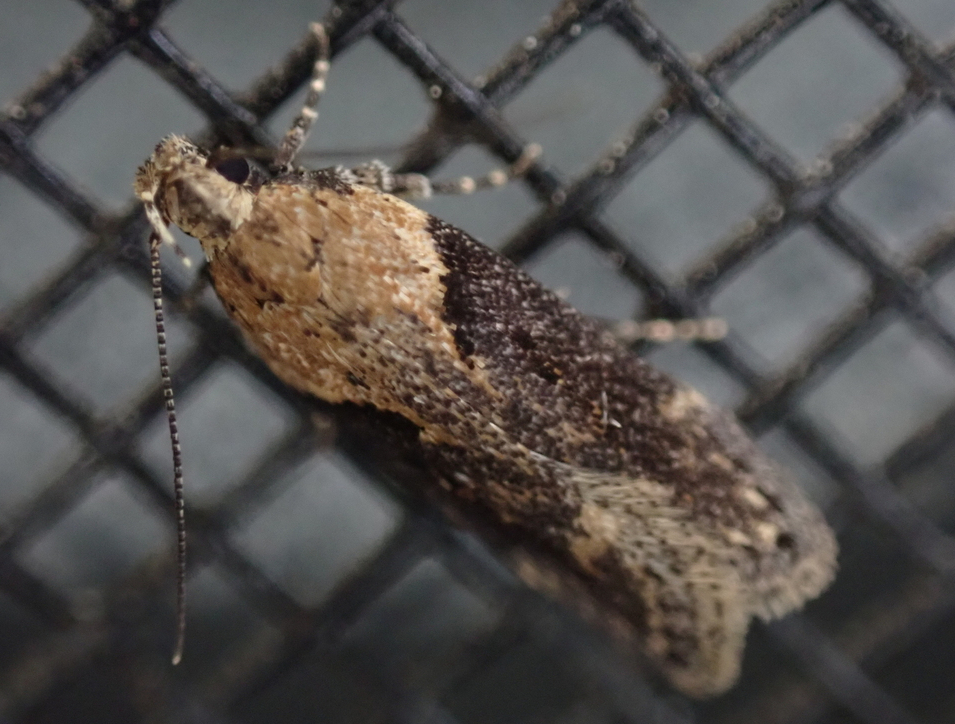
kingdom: Animalia
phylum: Arthropoda
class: Insecta
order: Lepidoptera
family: Gelechiidae
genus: Chionodes
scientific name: Chionodes mediofuscella
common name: Black-smudged chionodes moth
